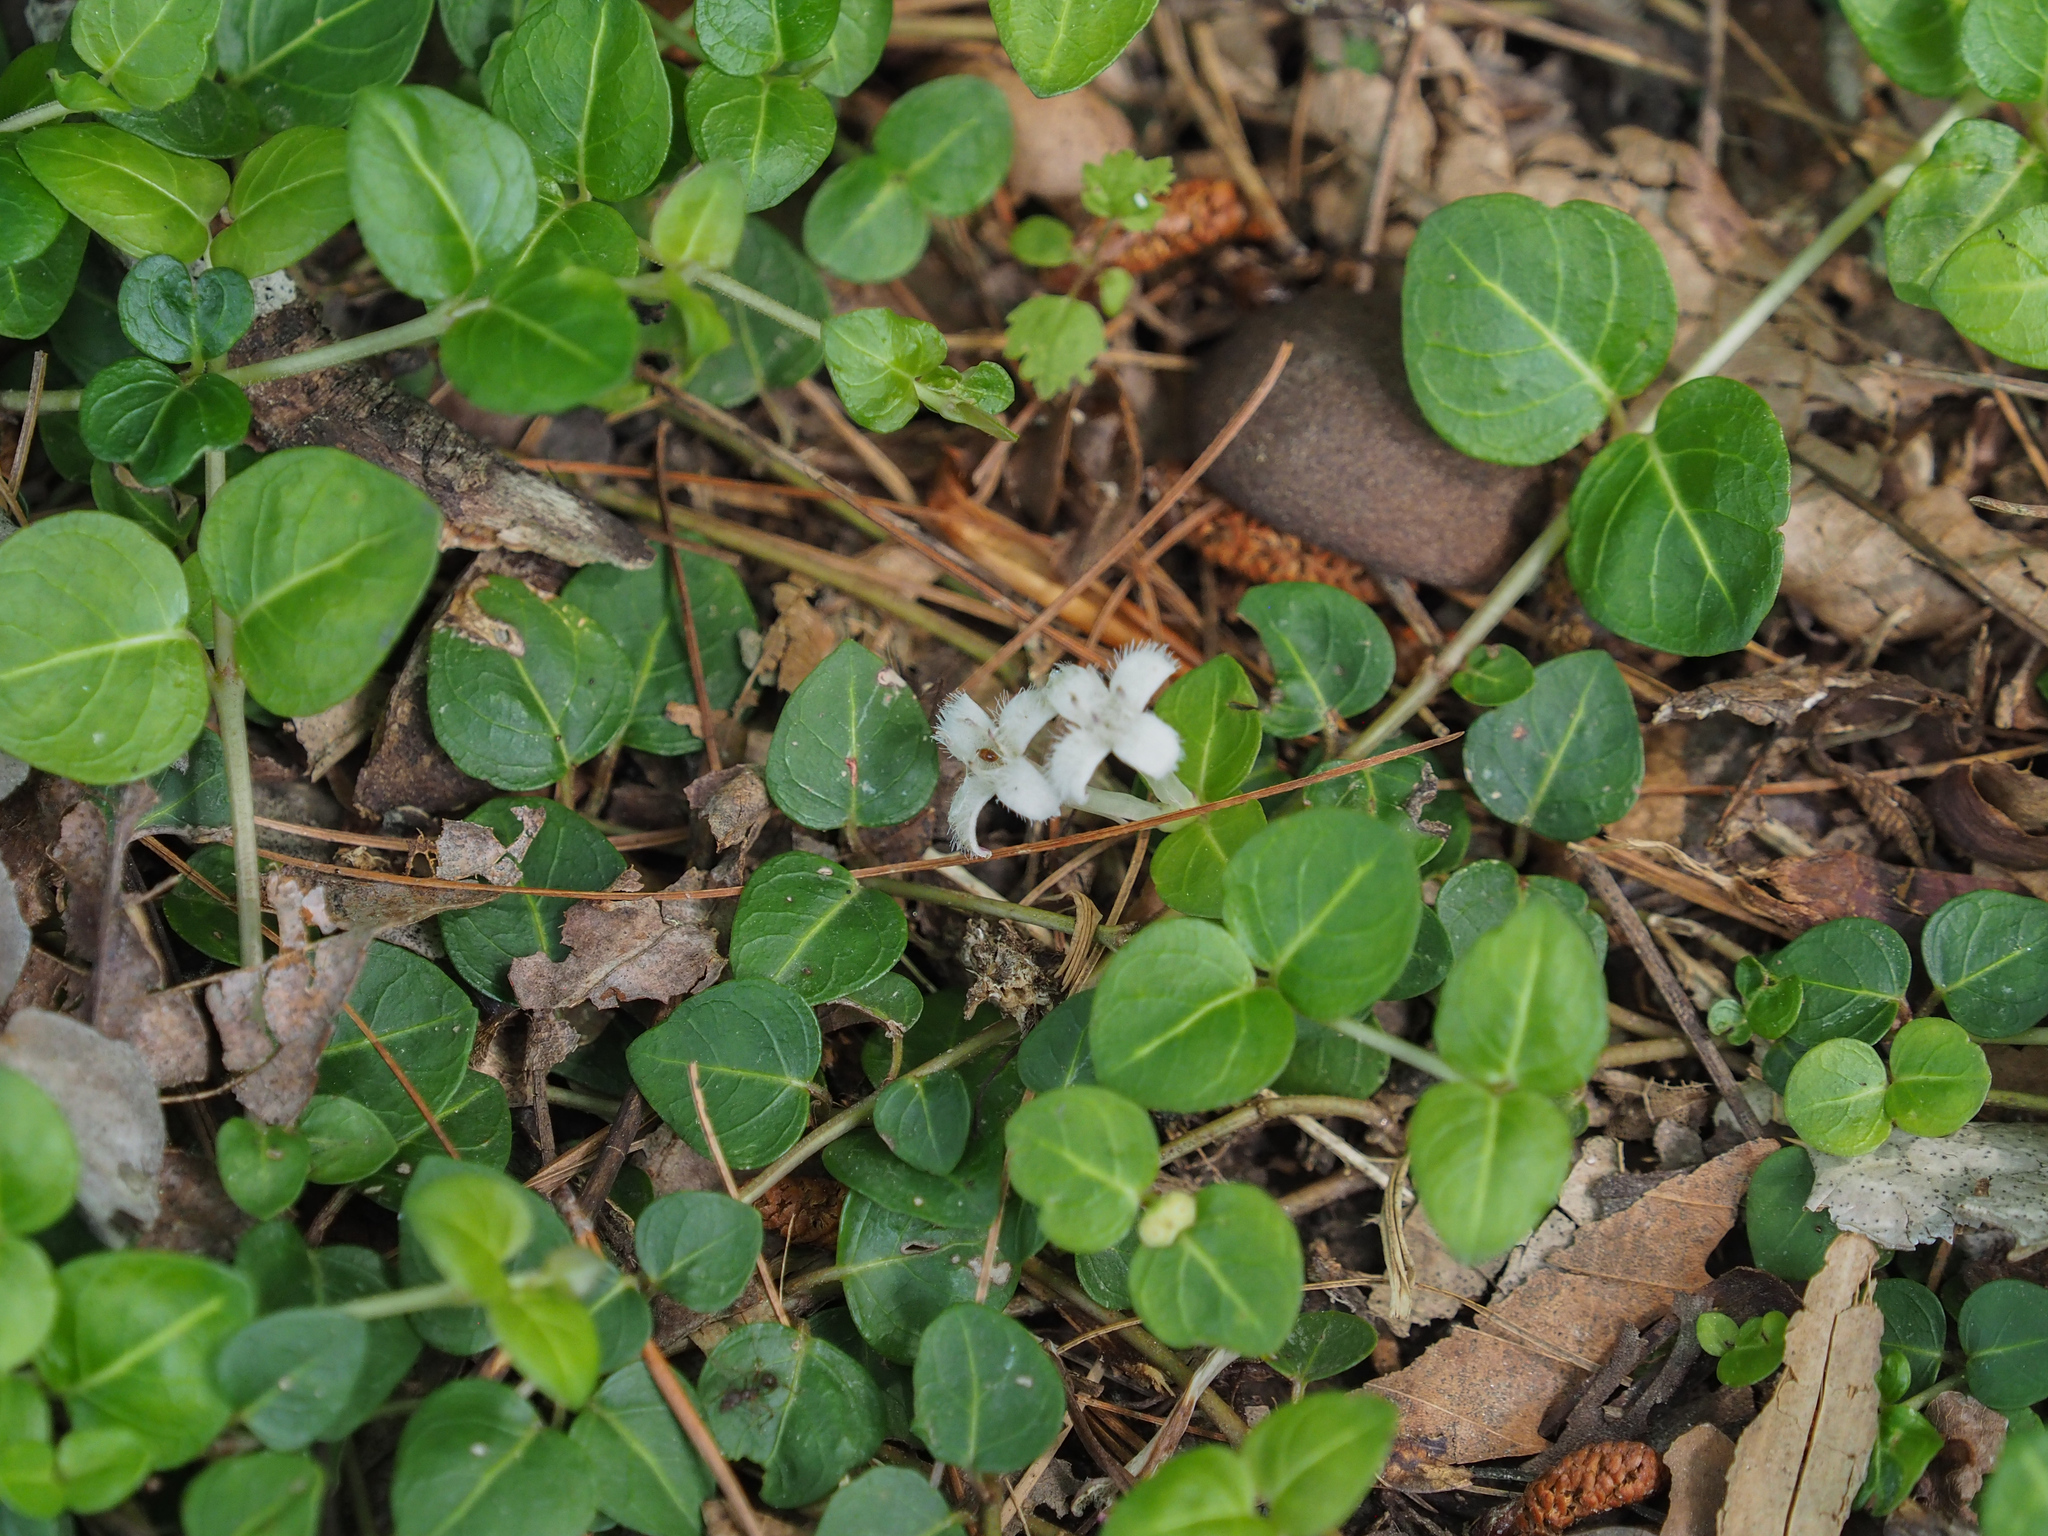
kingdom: Plantae
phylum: Tracheophyta
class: Magnoliopsida
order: Gentianales
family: Rubiaceae
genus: Mitchella
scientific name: Mitchella repens
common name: Partridge-berry
